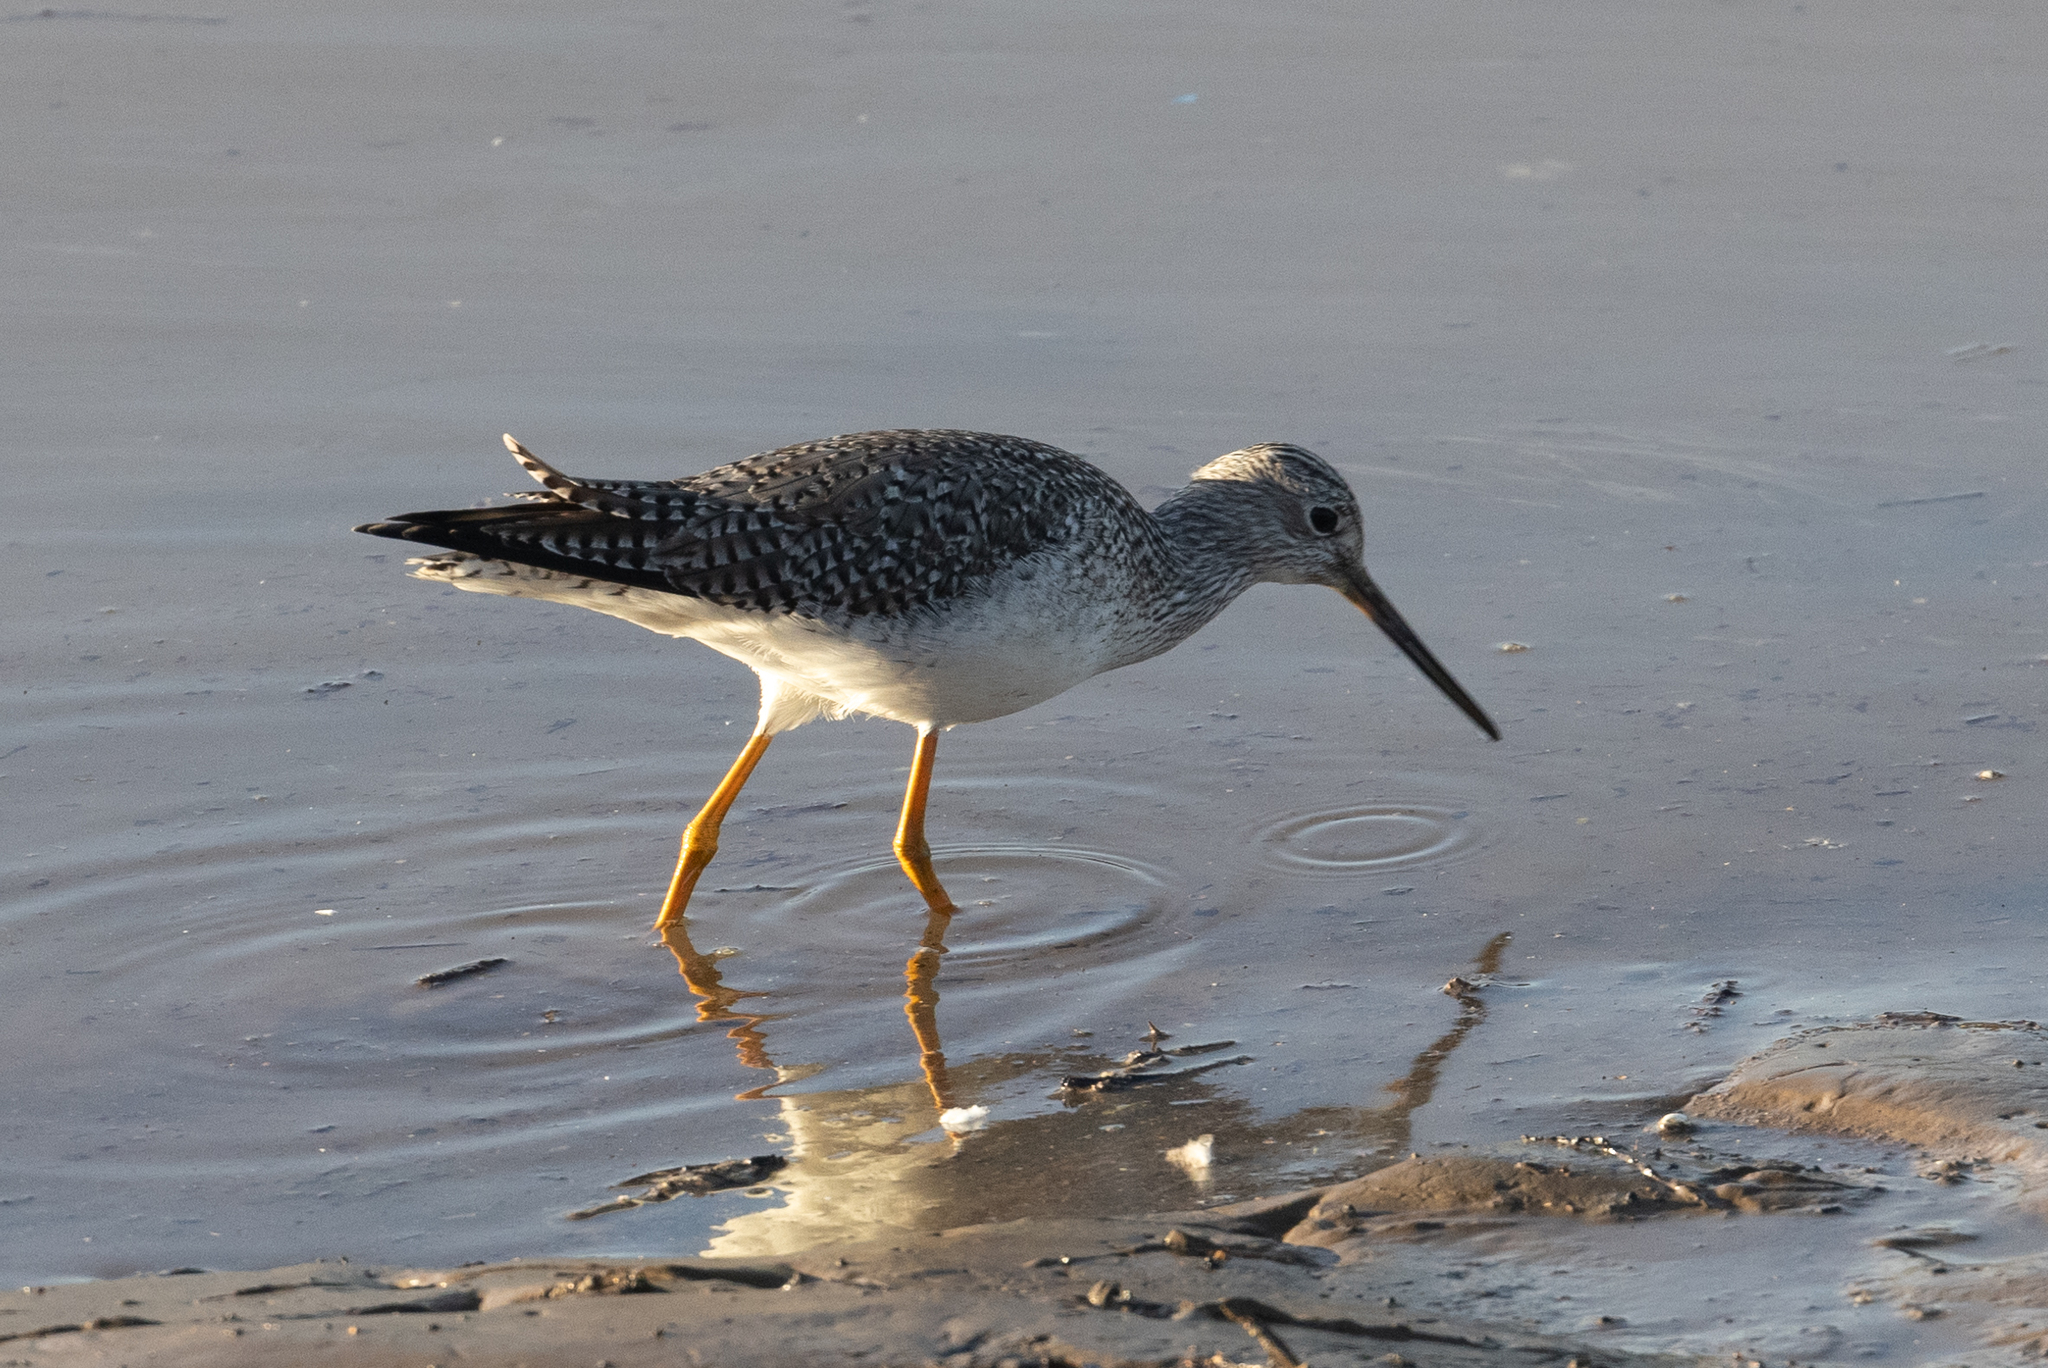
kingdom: Animalia
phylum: Chordata
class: Aves
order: Charadriiformes
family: Scolopacidae
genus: Tringa
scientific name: Tringa melanoleuca
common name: Greater yellowlegs
